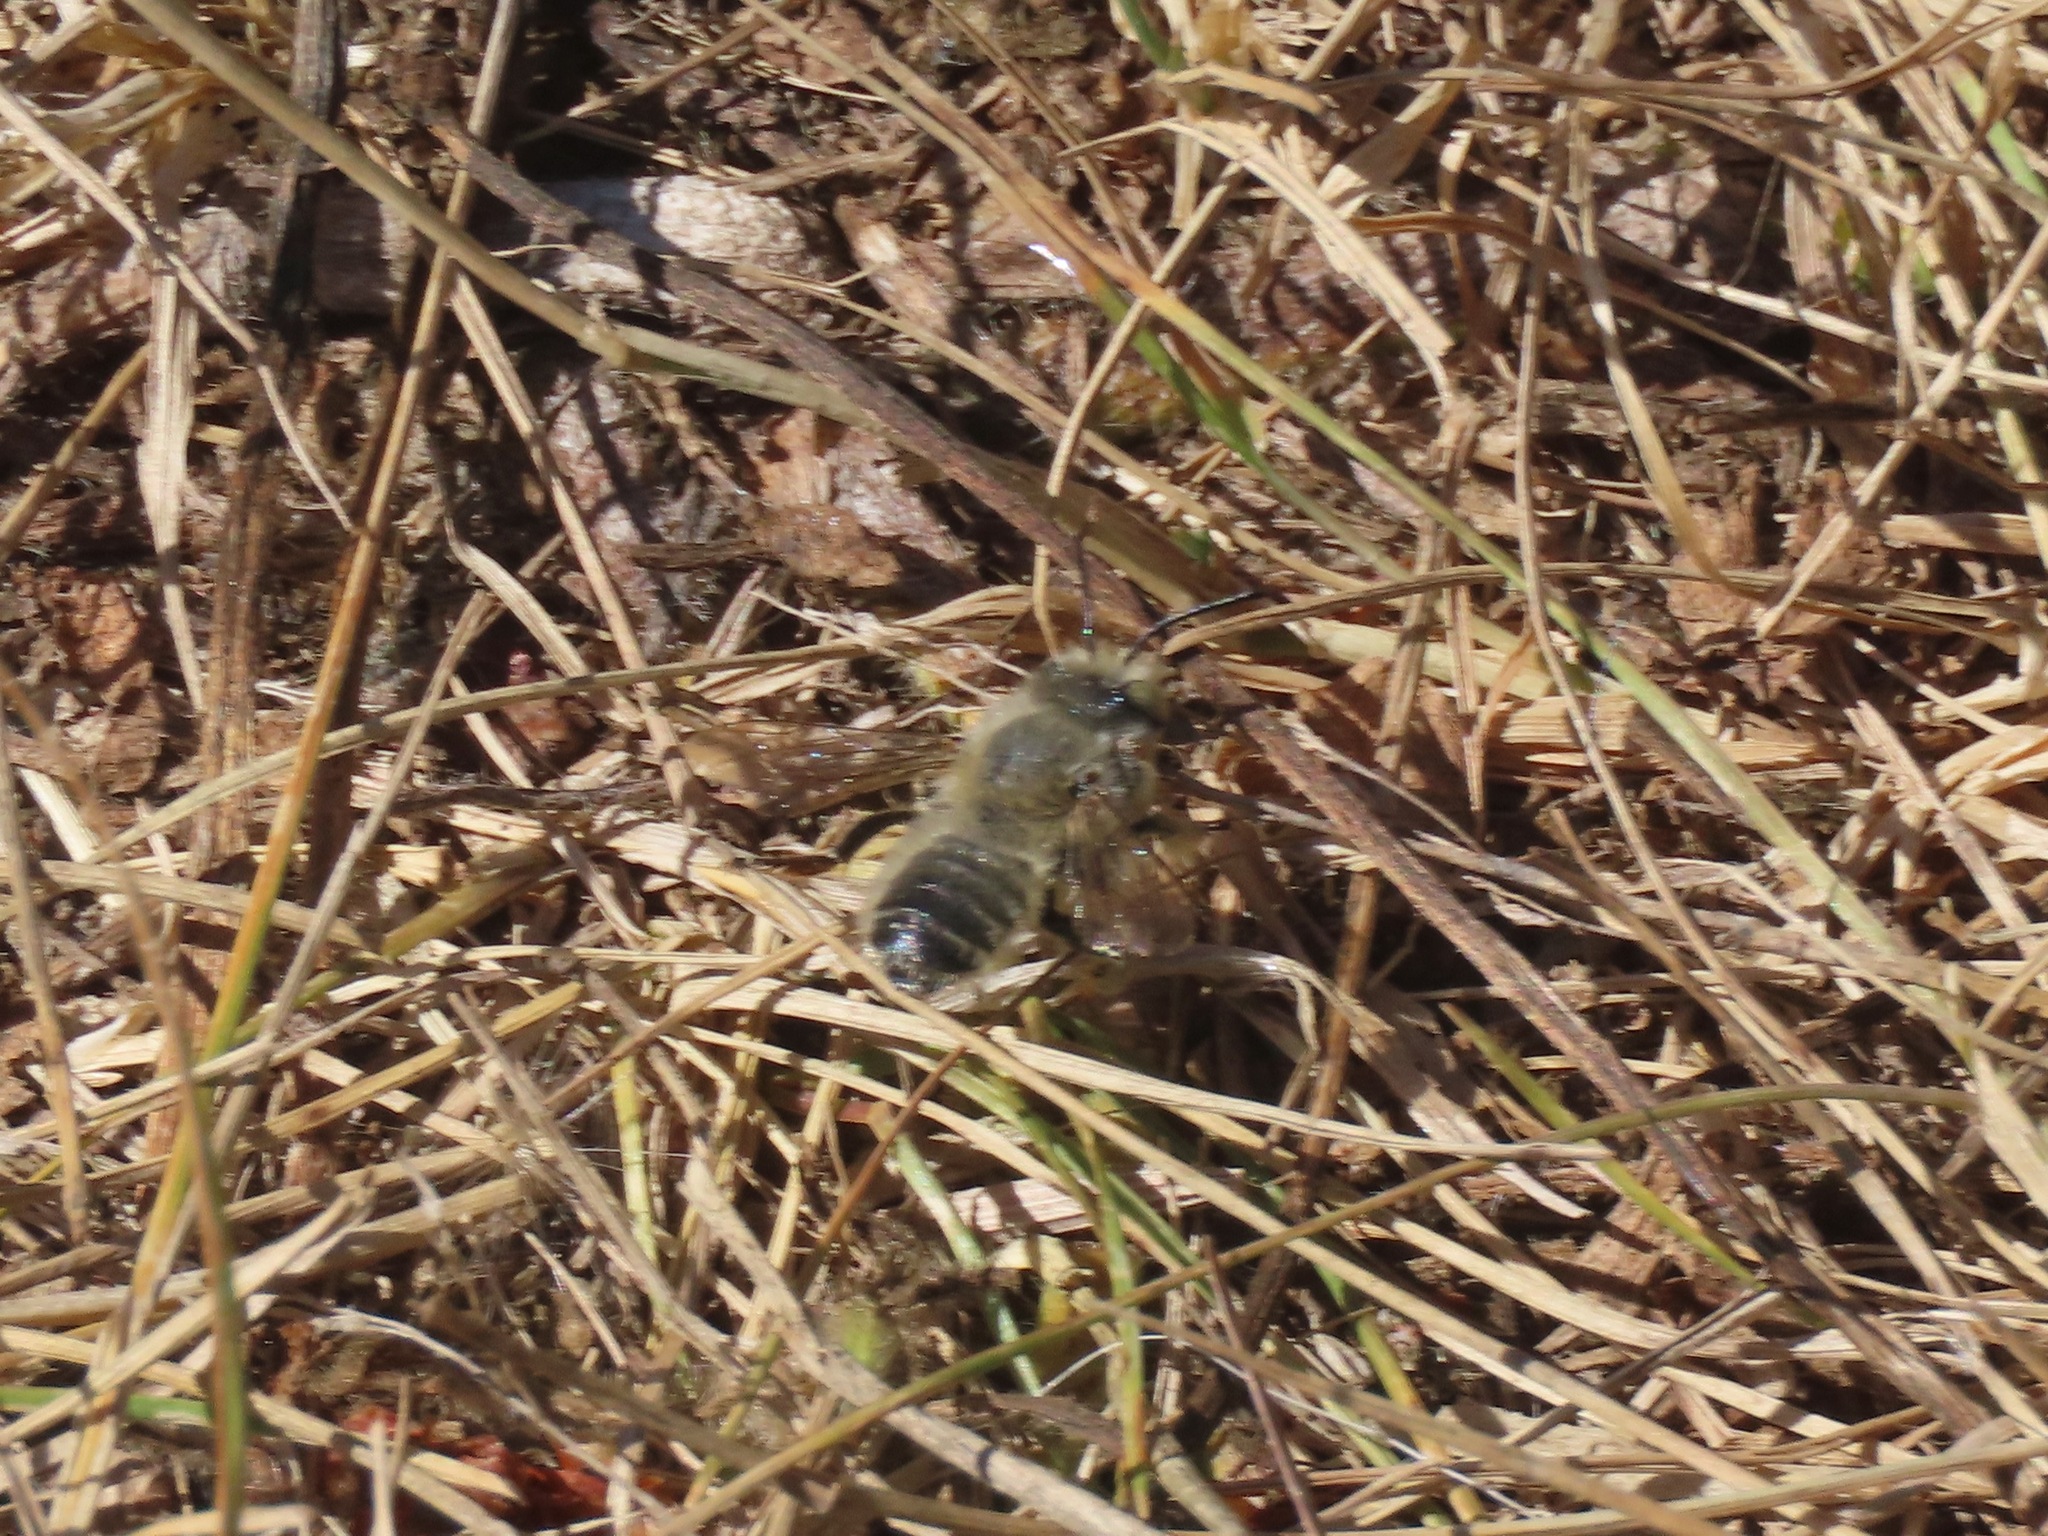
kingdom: Animalia
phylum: Arthropoda
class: Insecta
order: Hymenoptera
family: Megachilidae
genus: Megachile
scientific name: Megachile perihirta
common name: Western leafcutter
